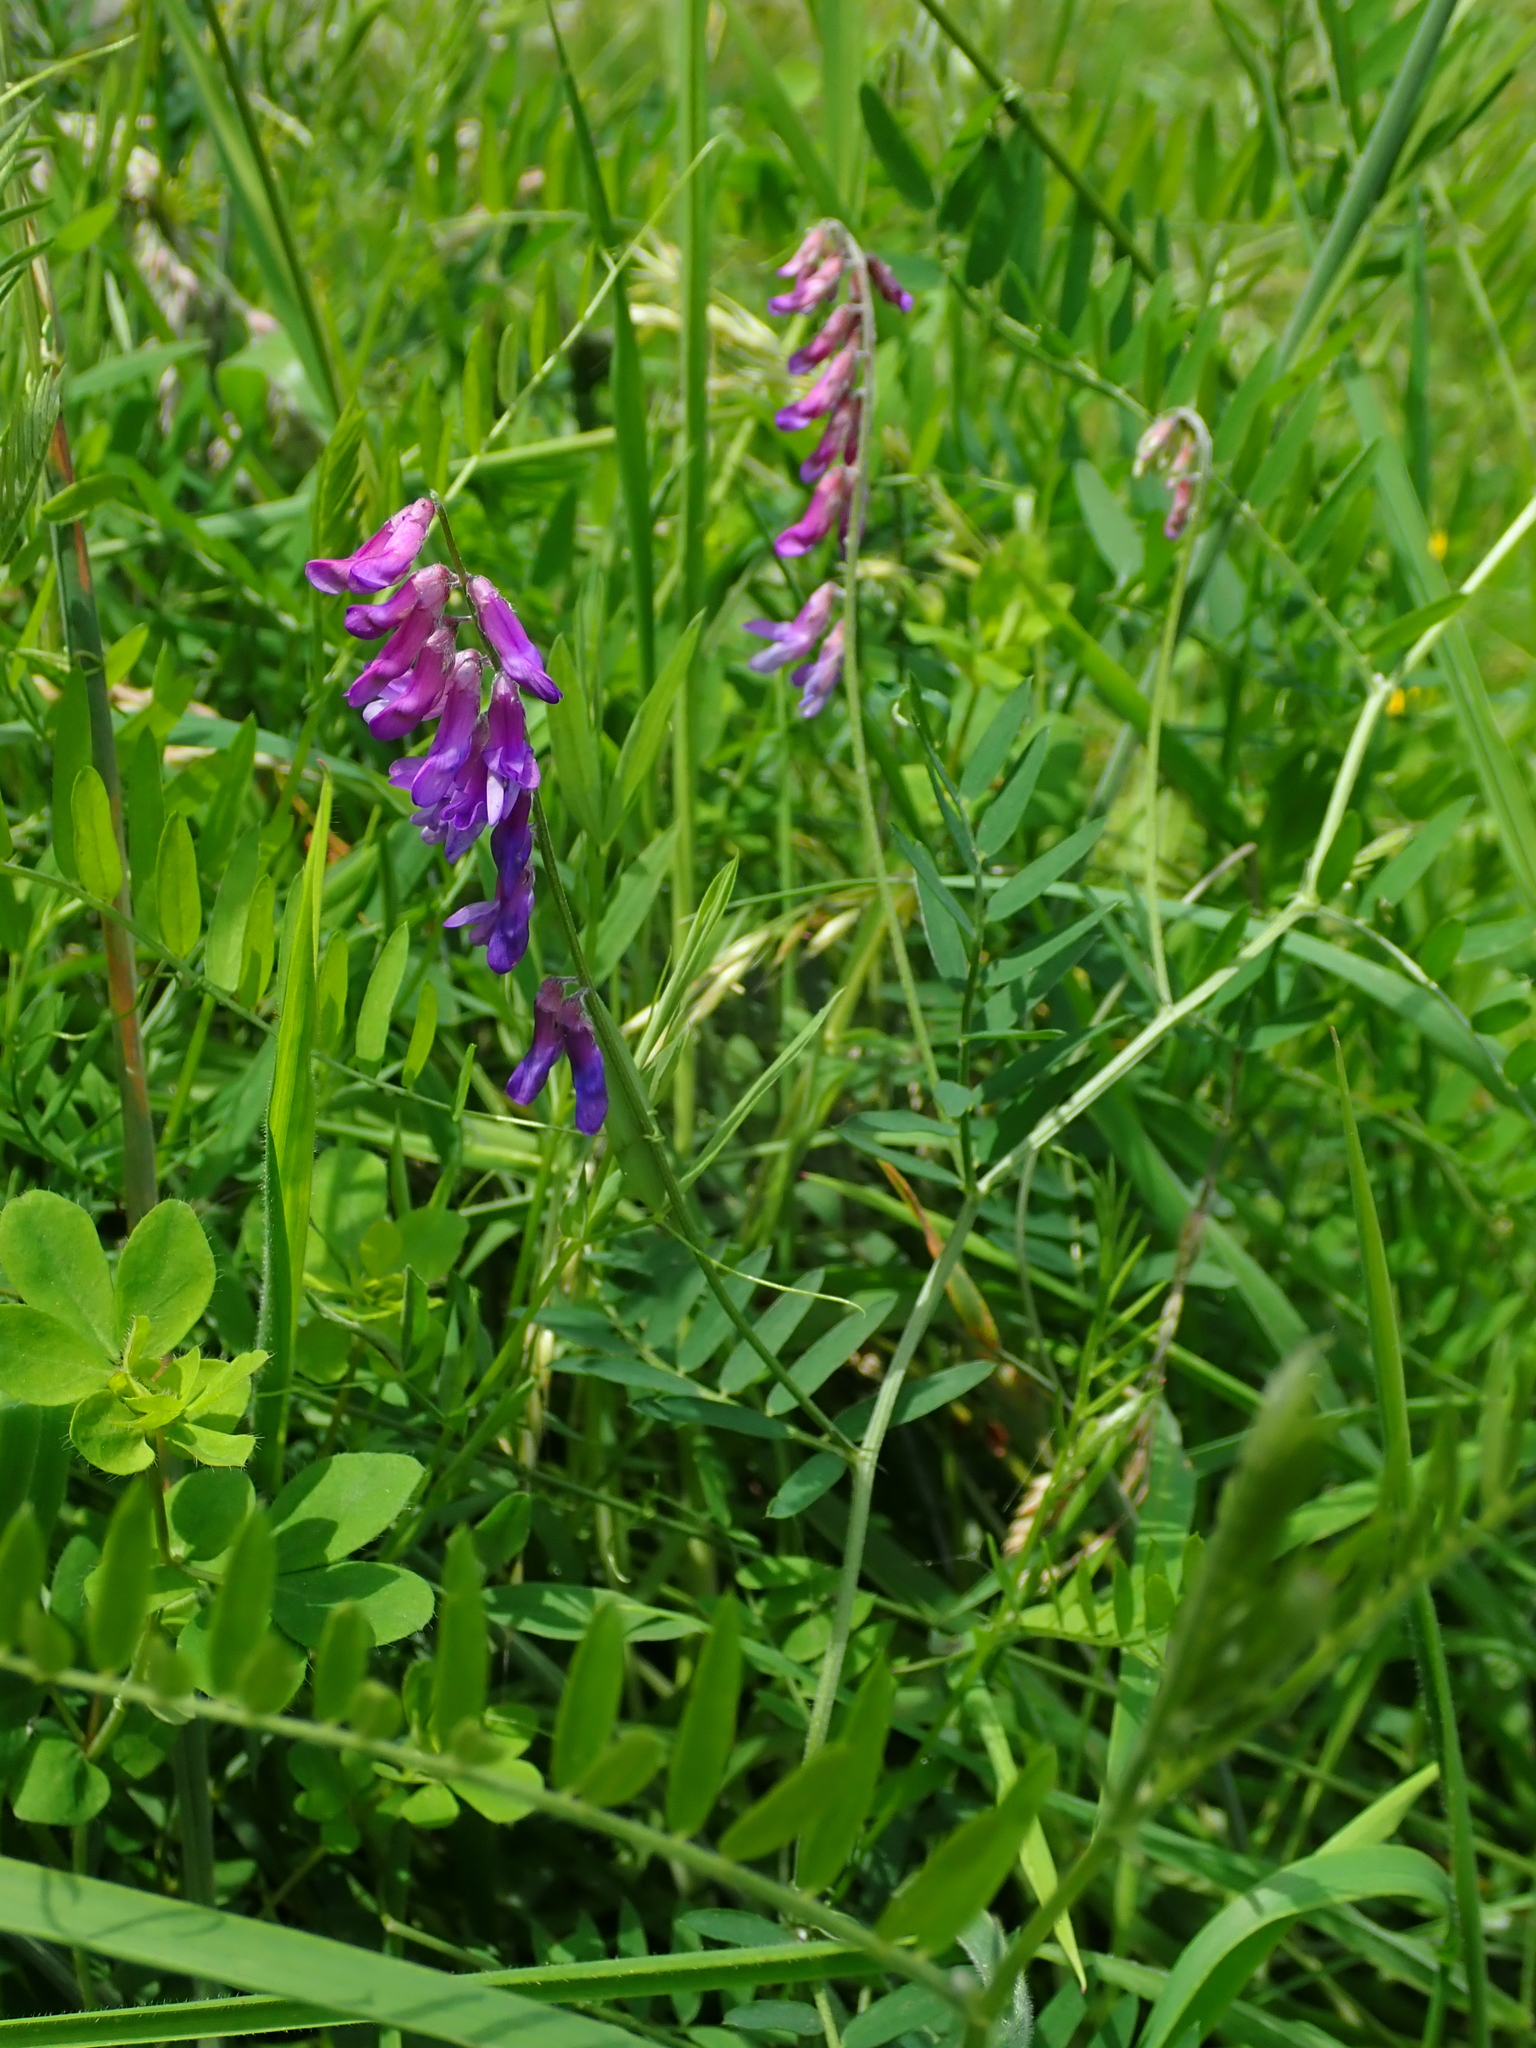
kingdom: Plantae
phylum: Tracheophyta
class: Magnoliopsida
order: Fabales
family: Fabaceae
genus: Vicia
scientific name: Vicia cracca
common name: Bird vetch
